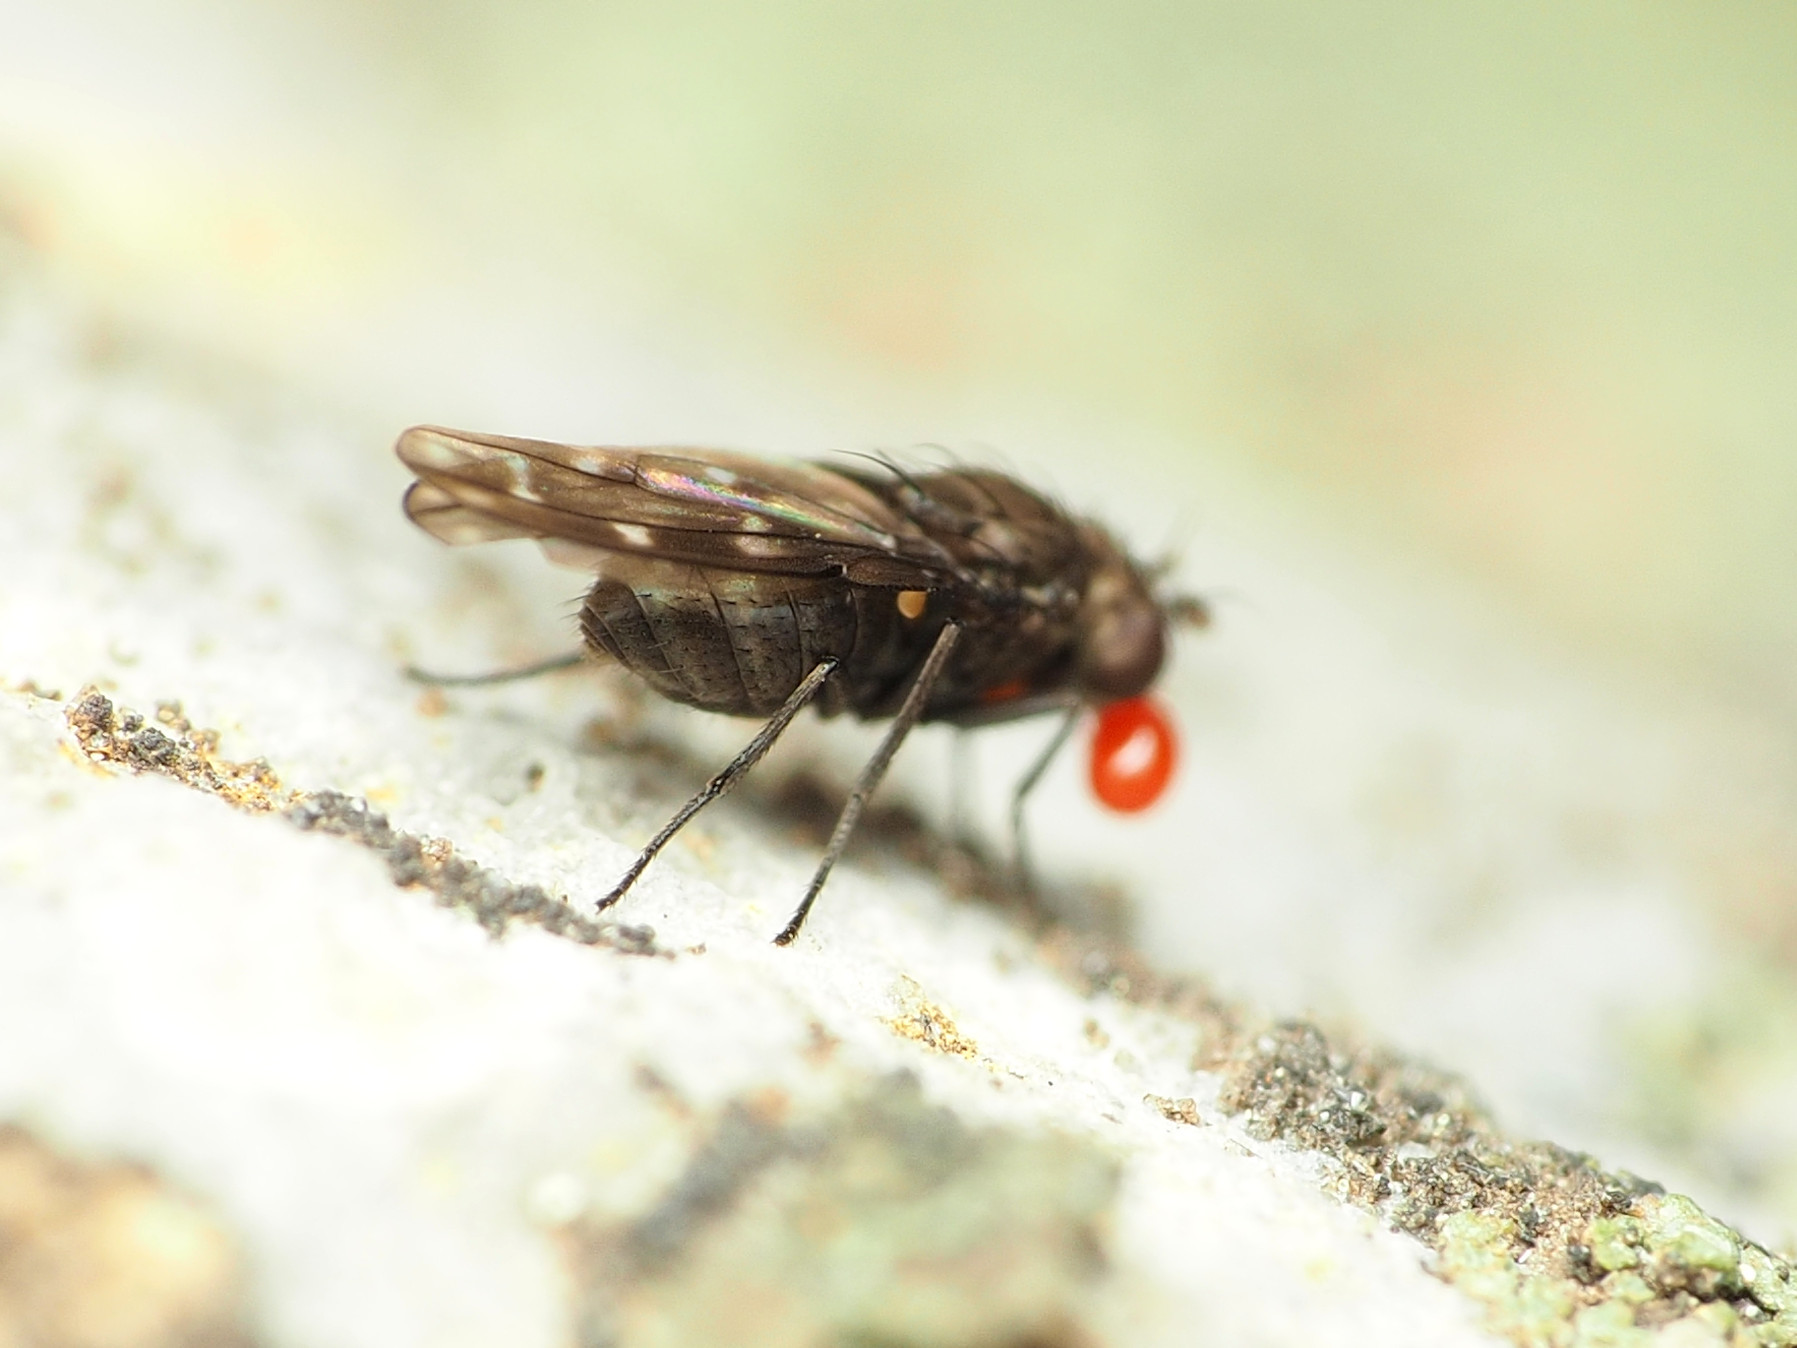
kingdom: Animalia
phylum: Arthropoda
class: Insecta
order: Diptera
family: Ephydridae
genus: Scatella
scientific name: Scatella stagnalis
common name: Shore fly
